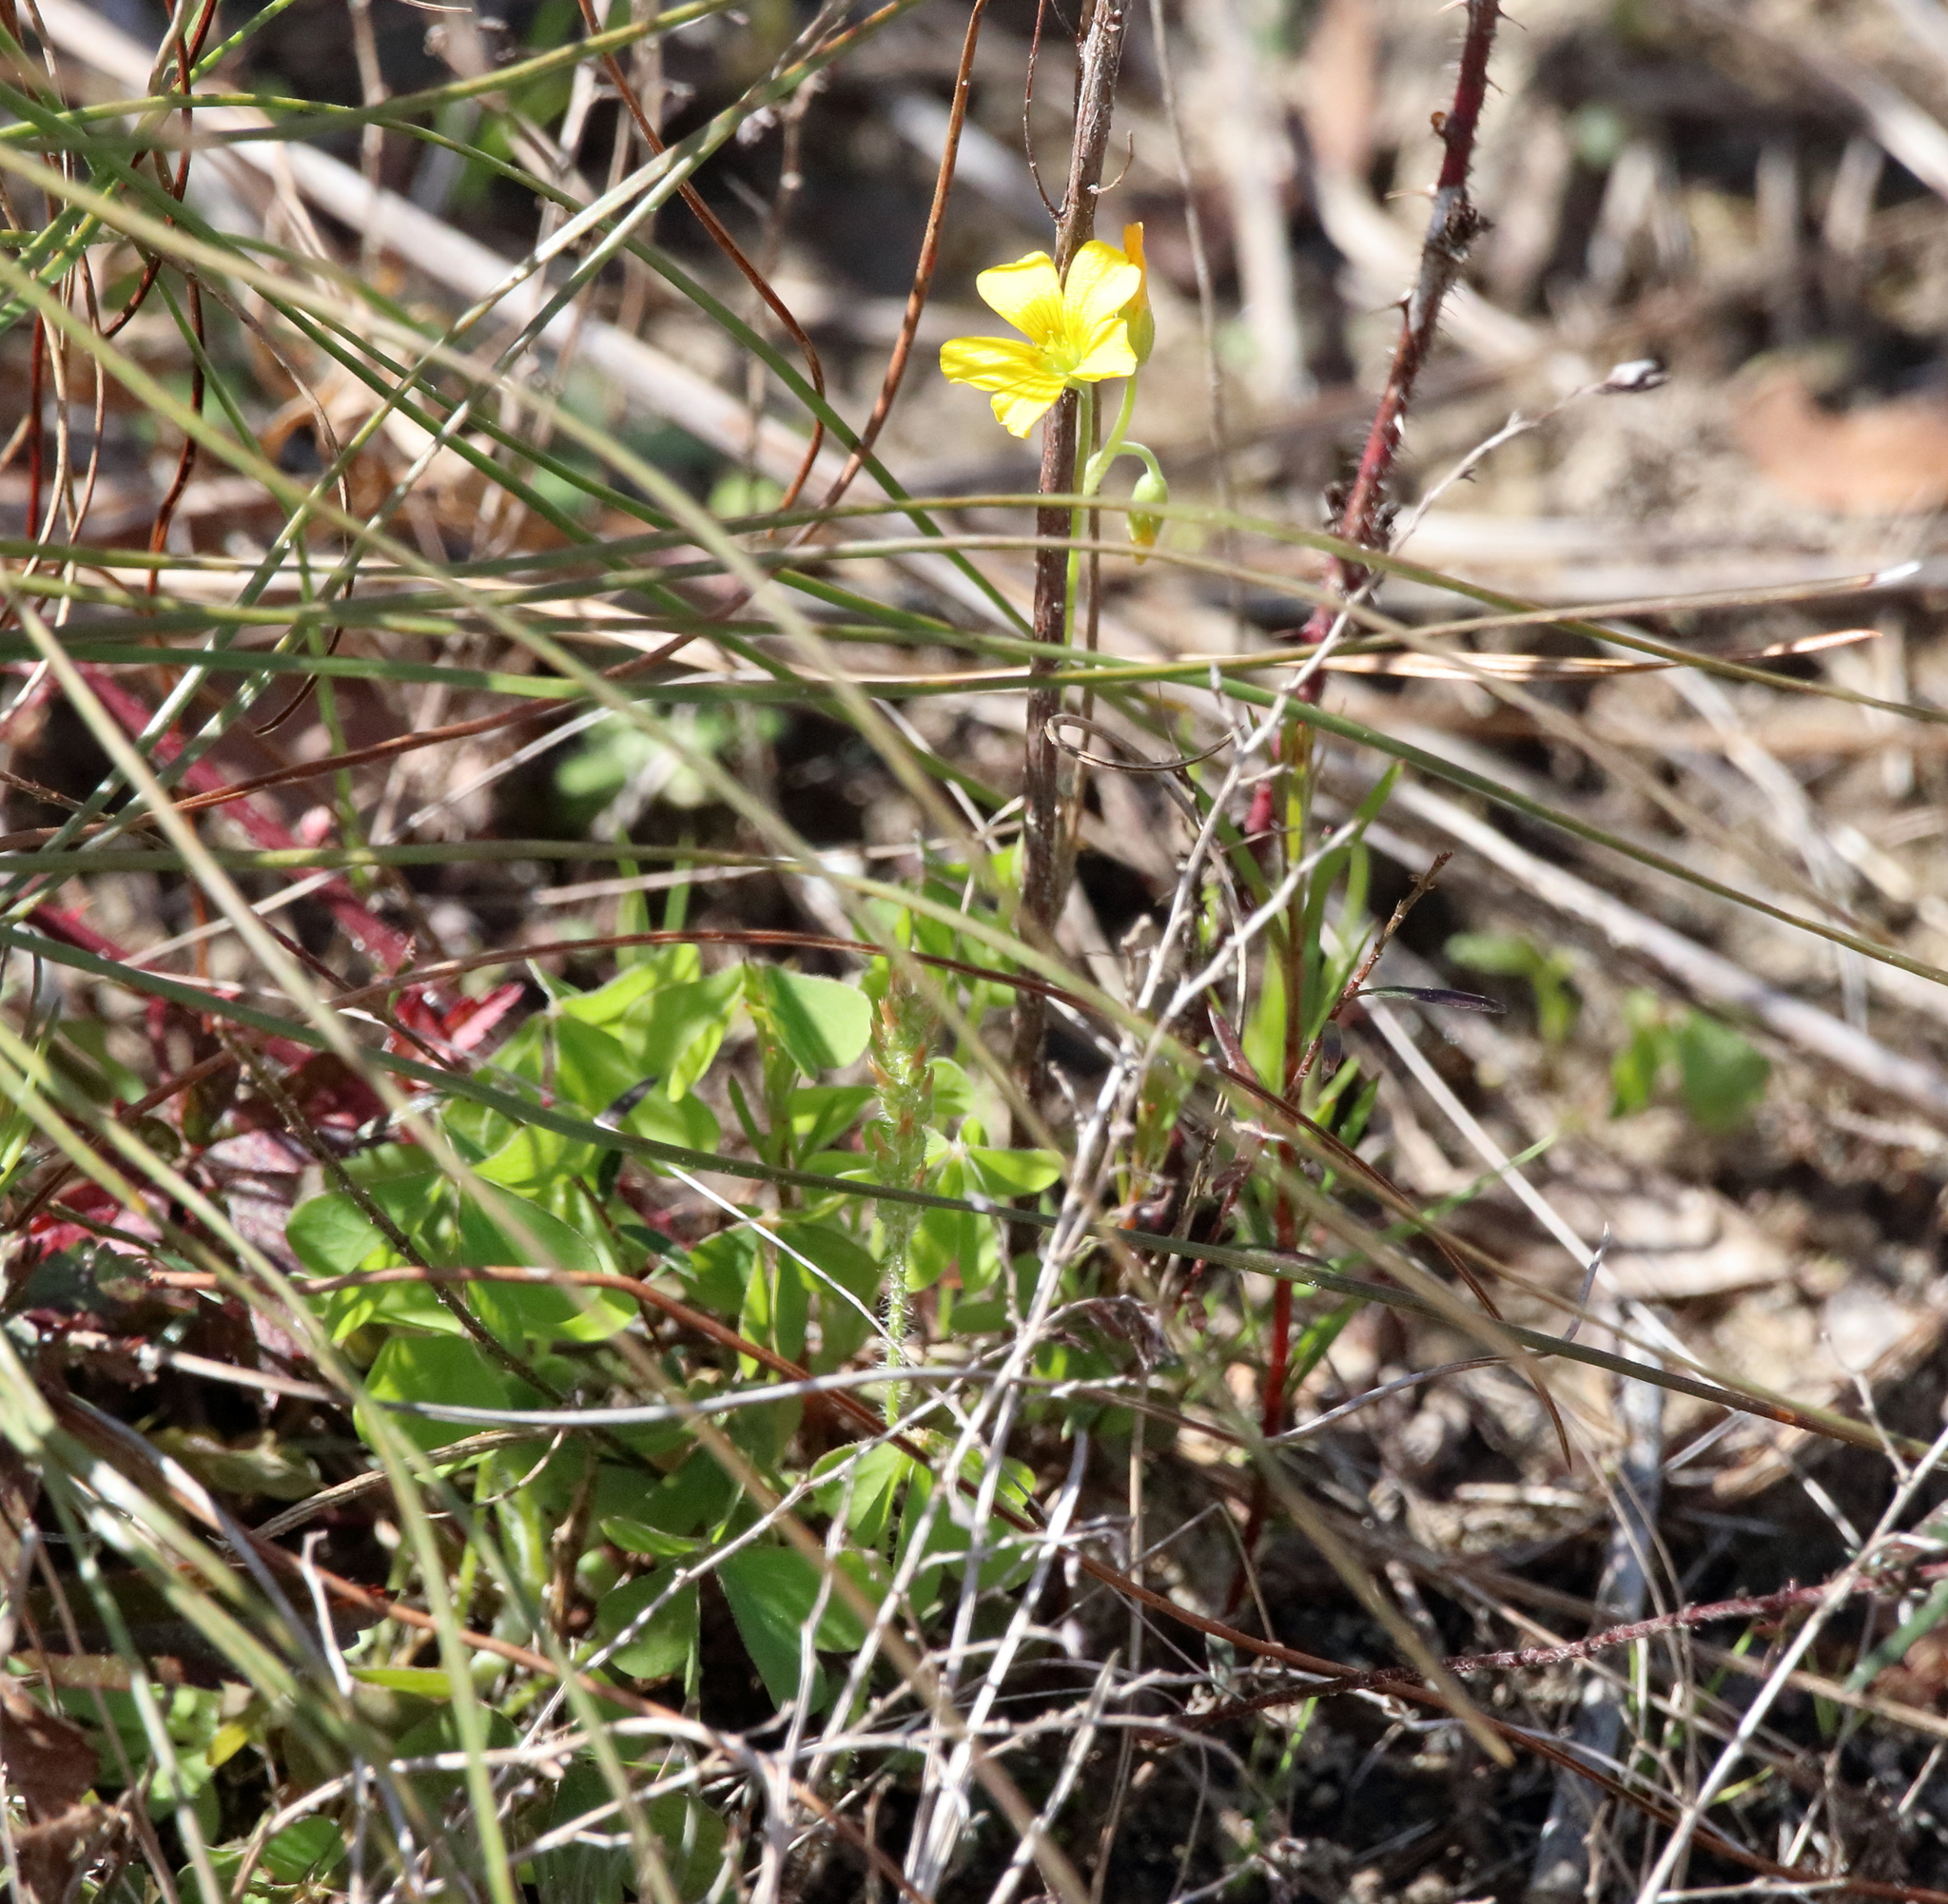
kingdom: Plantae
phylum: Tracheophyta
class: Magnoliopsida
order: Oxalidales
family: Oxalidaceae
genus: Oxalis
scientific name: Oxalis dillenii
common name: Sussex yellow-sorrel
